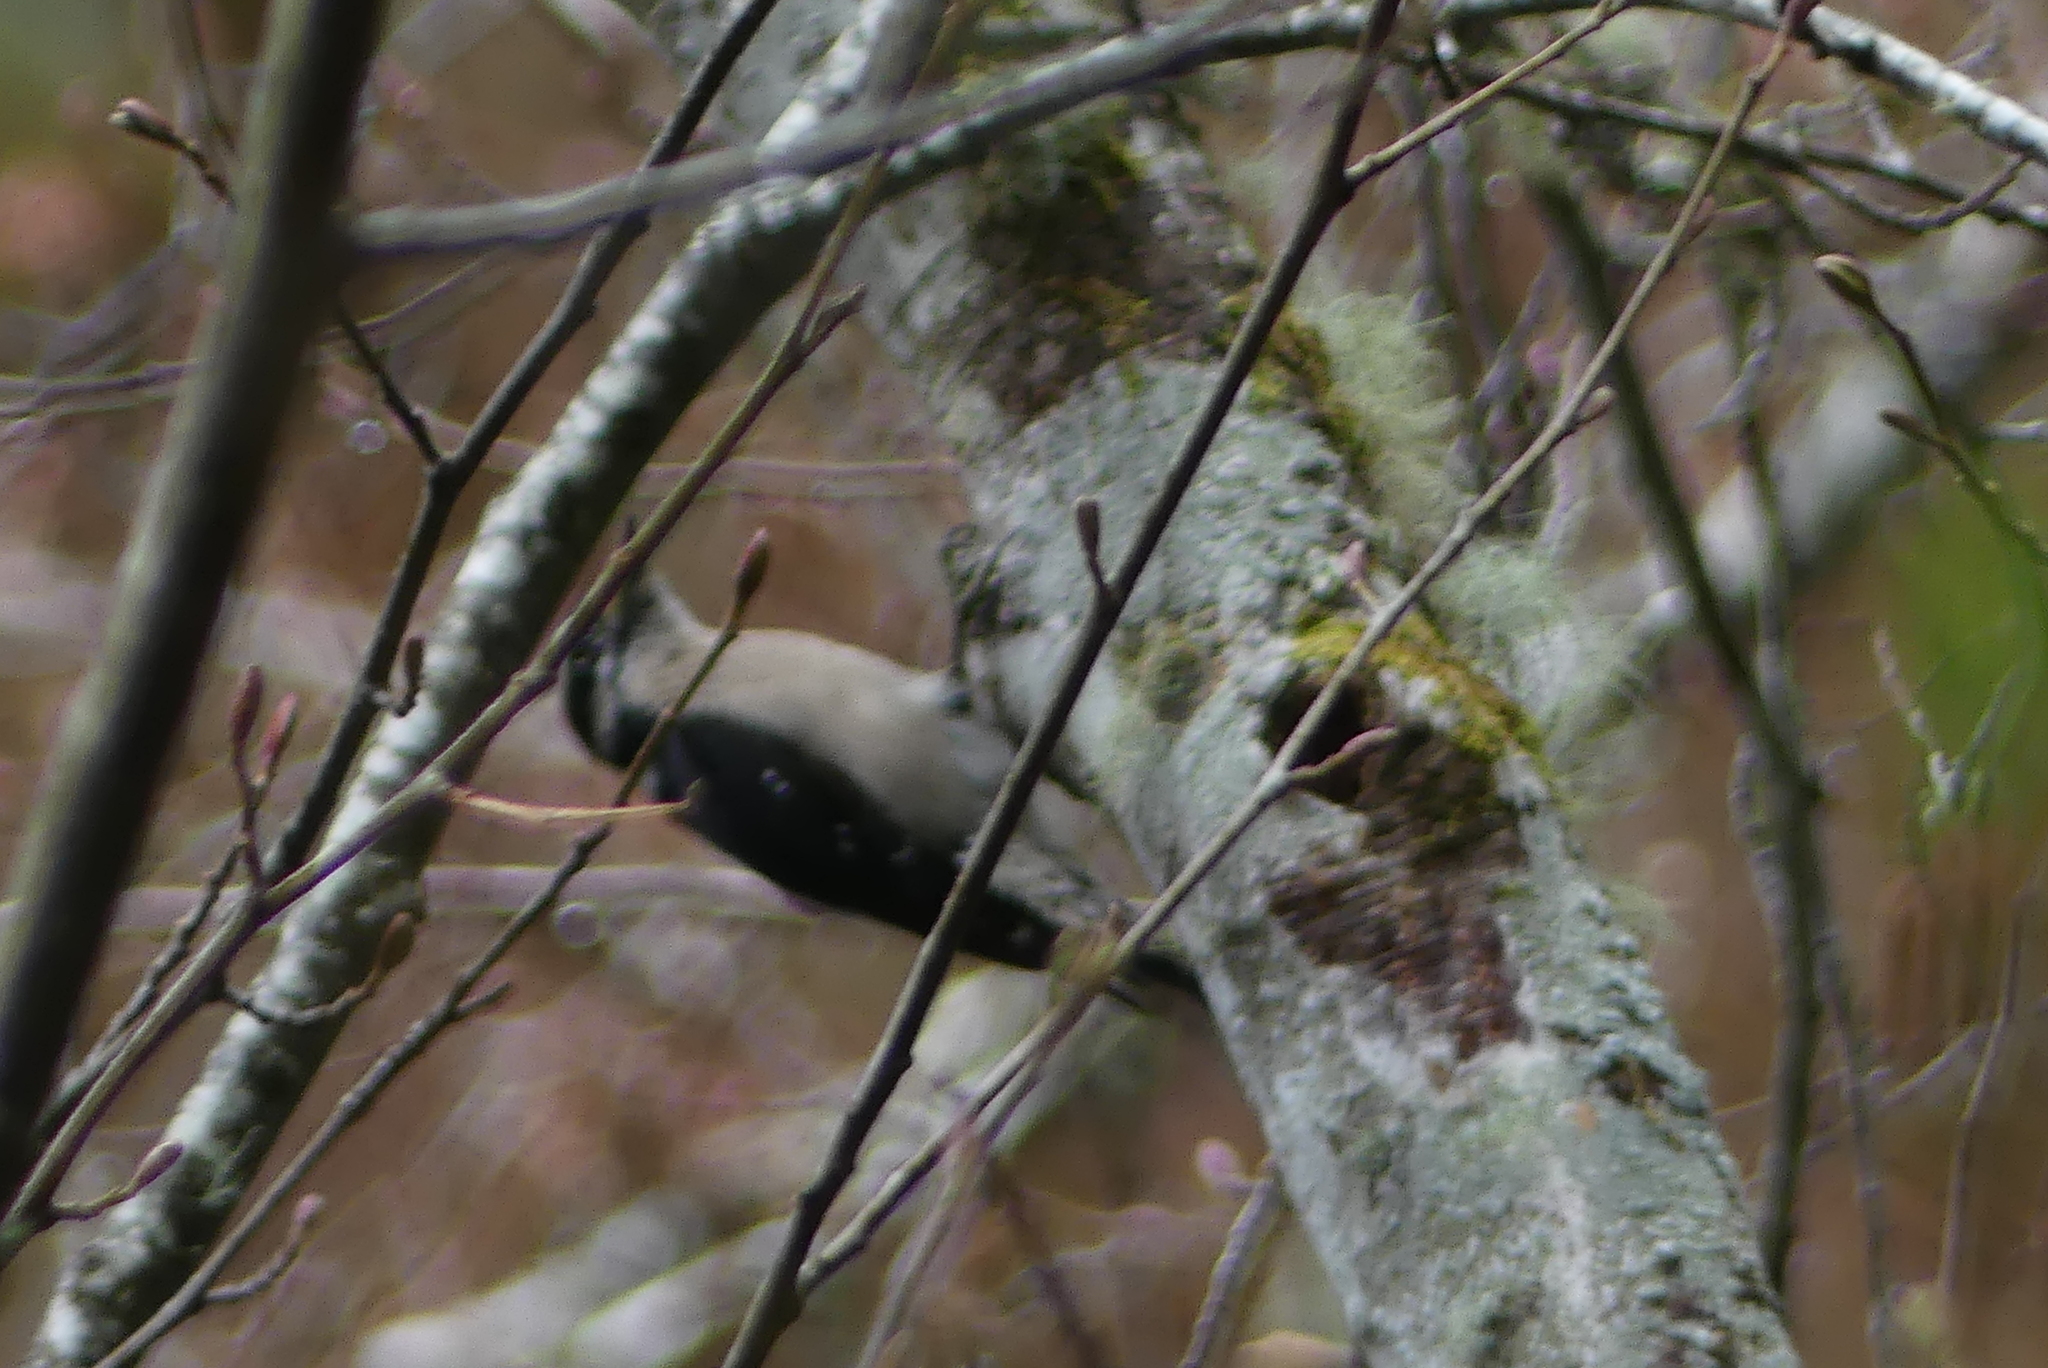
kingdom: Animalia
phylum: Chordata
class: Aves
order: Piciformes
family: Picidae
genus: Dryobates
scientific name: Dryobates pubescens
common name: Downy woodpecker
